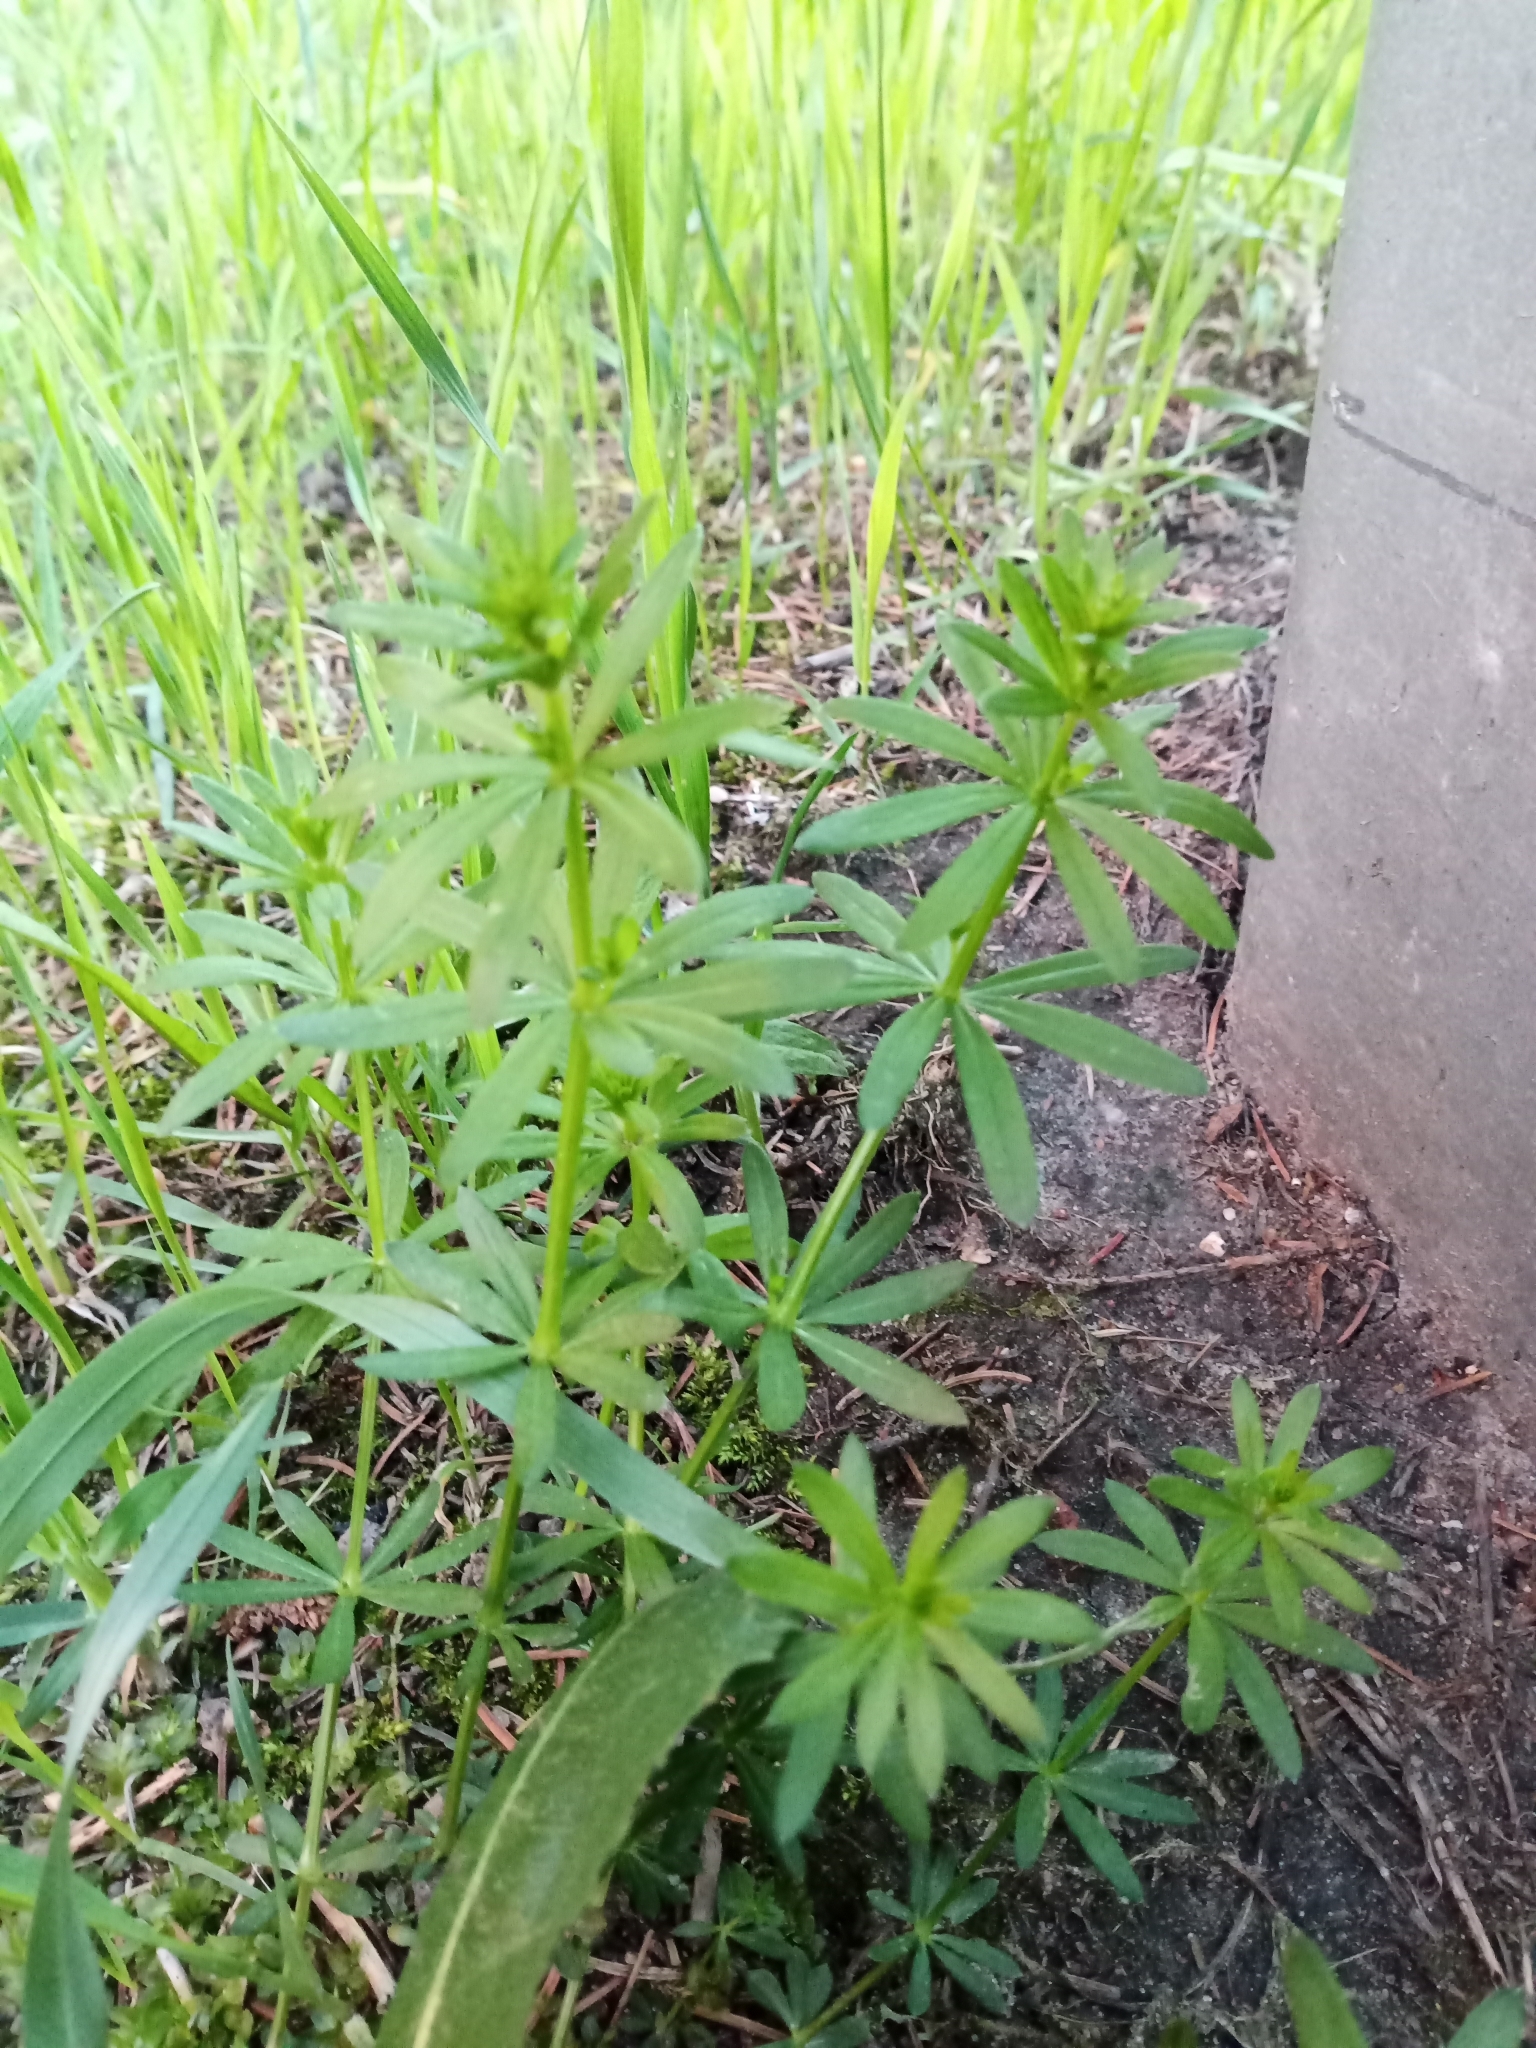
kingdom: Plantae
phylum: Tracheophyta
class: Magnoliopsida
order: Gentianales
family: Rubiaceae
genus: Galium
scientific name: Galium mollugo
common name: Hedge bedstraw
